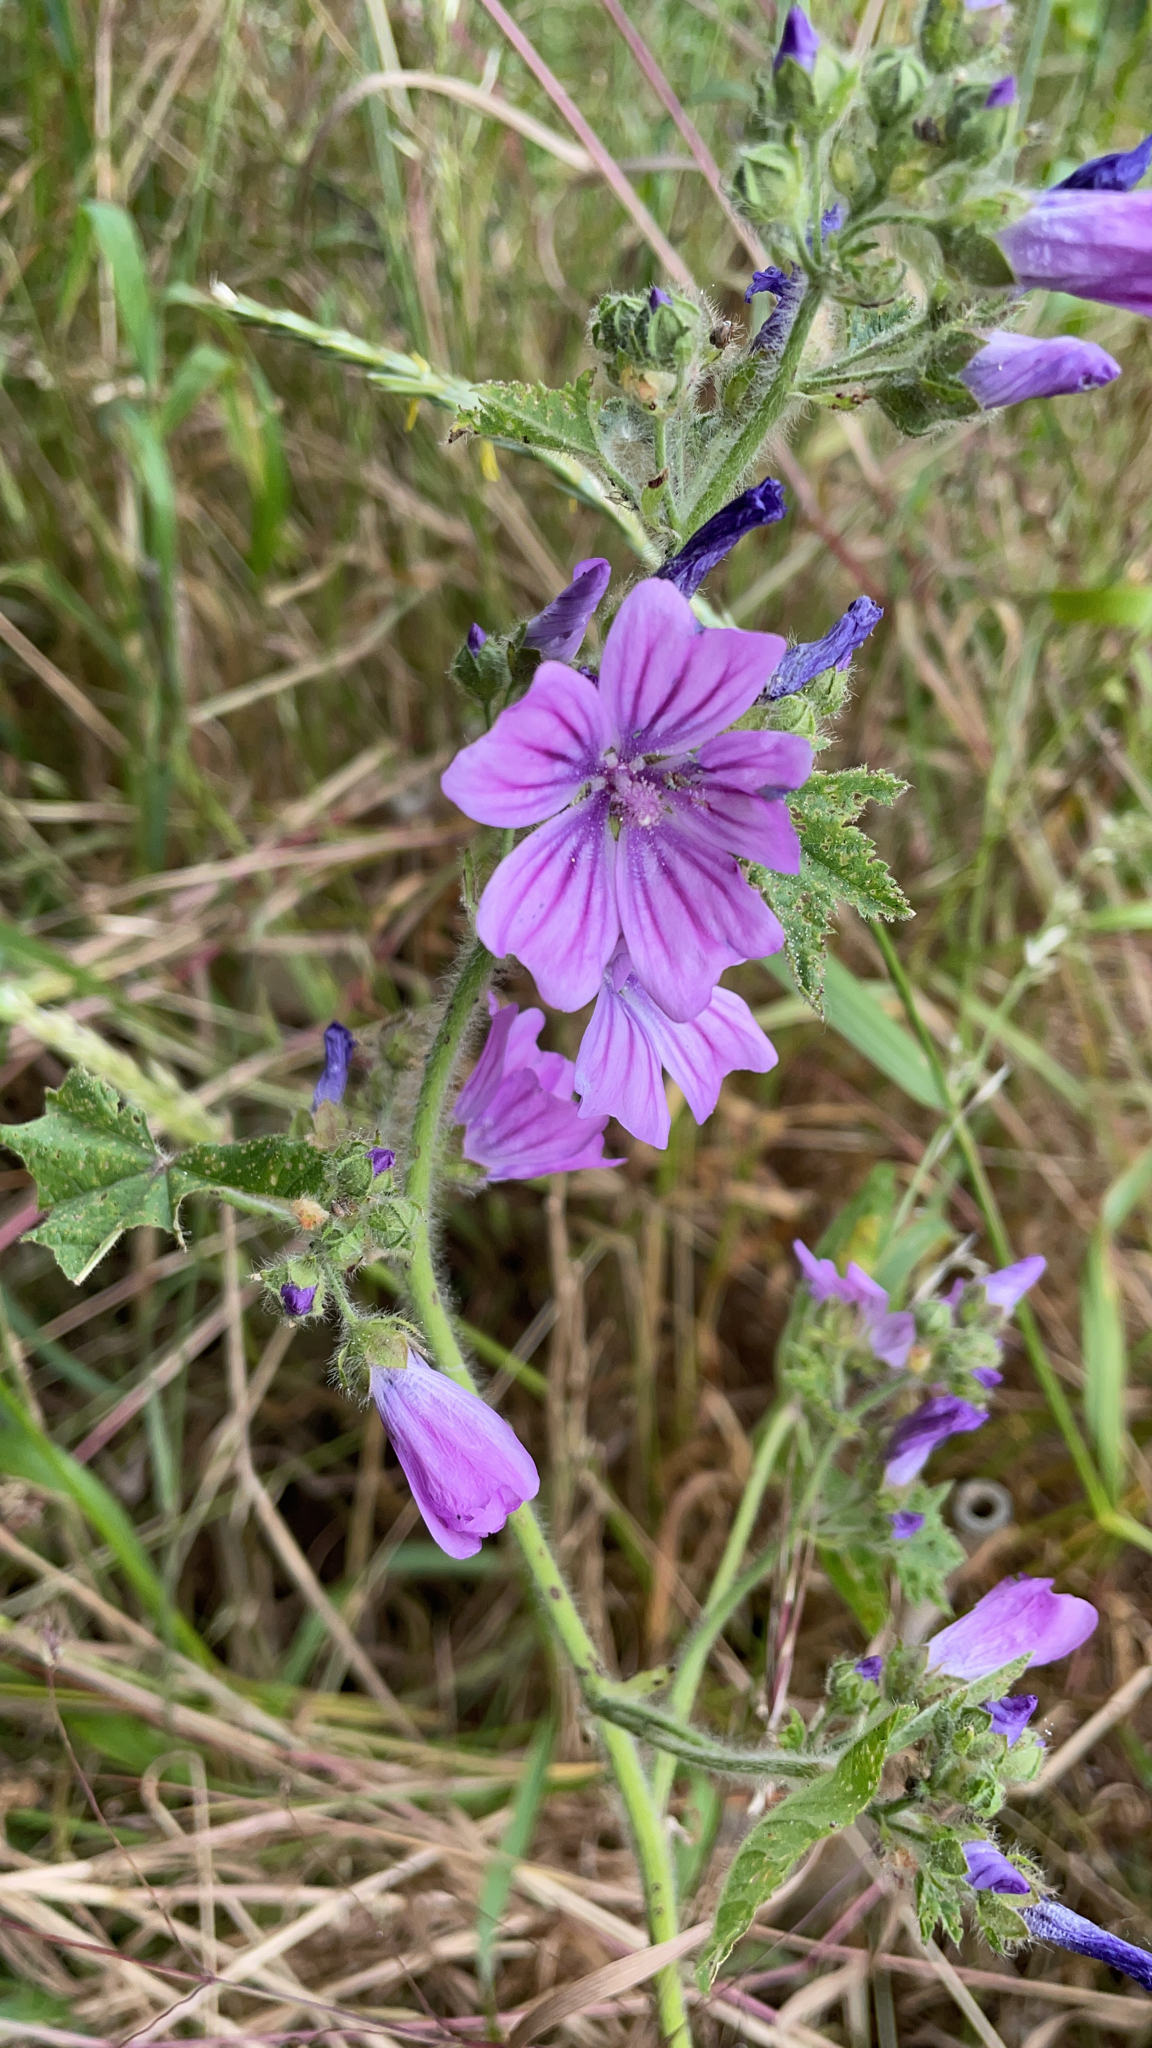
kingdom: Plantae
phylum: Tracheophyta
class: Magnoliopsida
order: Malvales
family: Malvaceae
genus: Malva
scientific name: Malva sylvestris
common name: Common mallow
